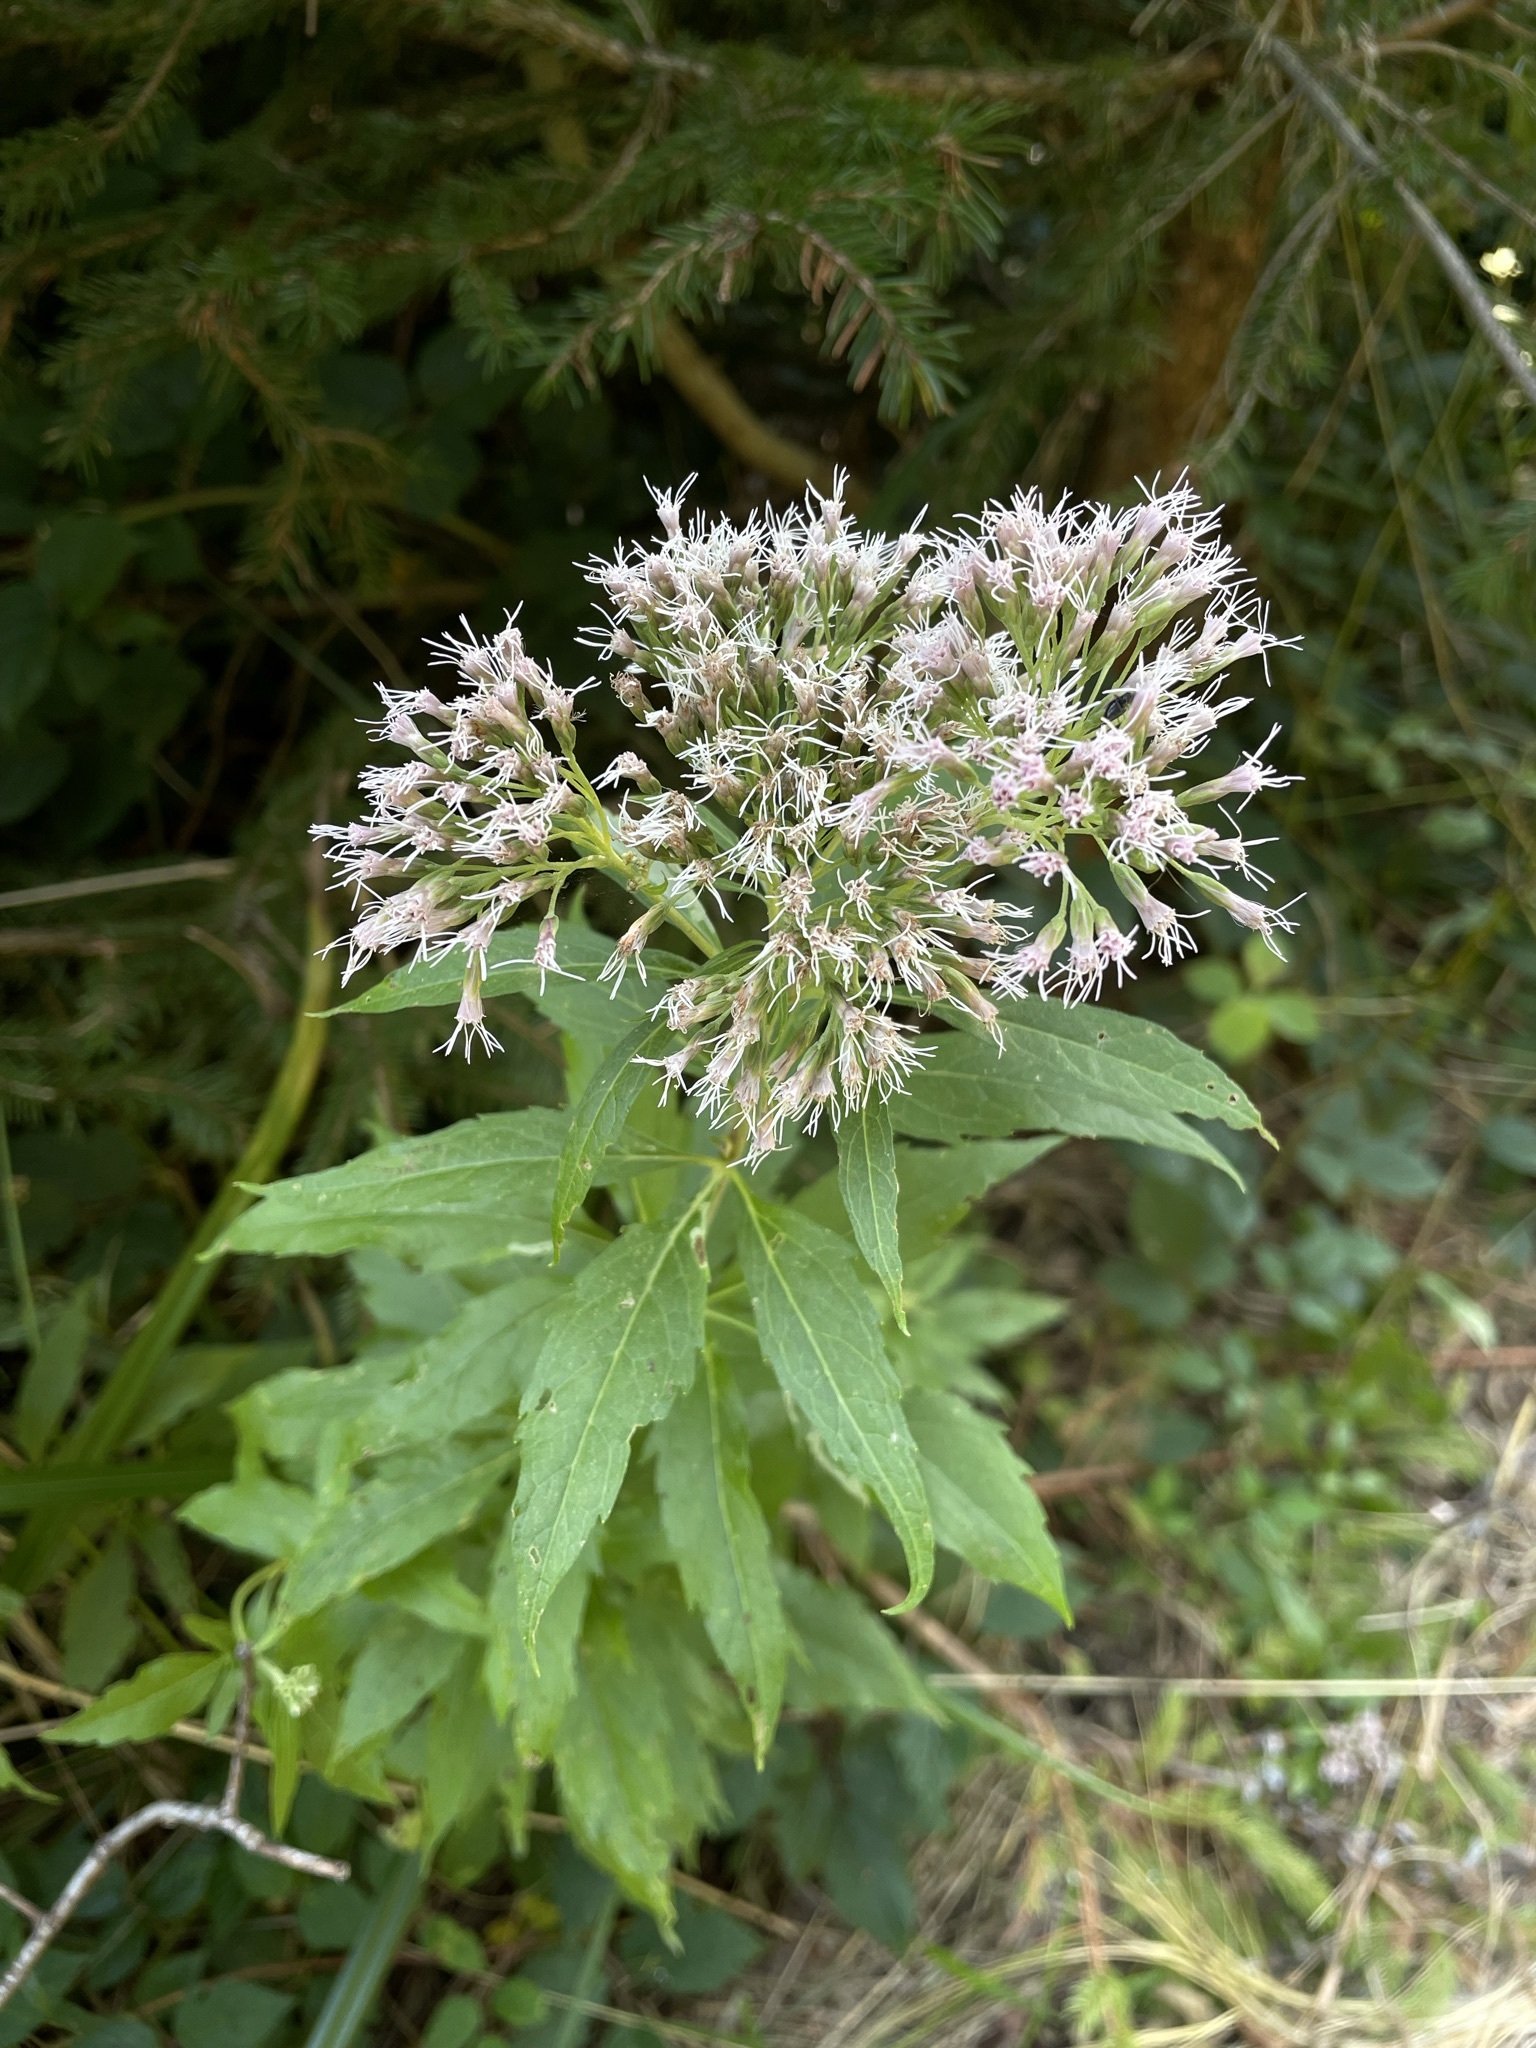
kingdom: Plantae
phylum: Tracheophyta
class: Magnoliopsida
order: Asterales
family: Asteraceae
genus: Eupatorium
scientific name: Eupatorium cannabinum
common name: Hemp-agrimony
